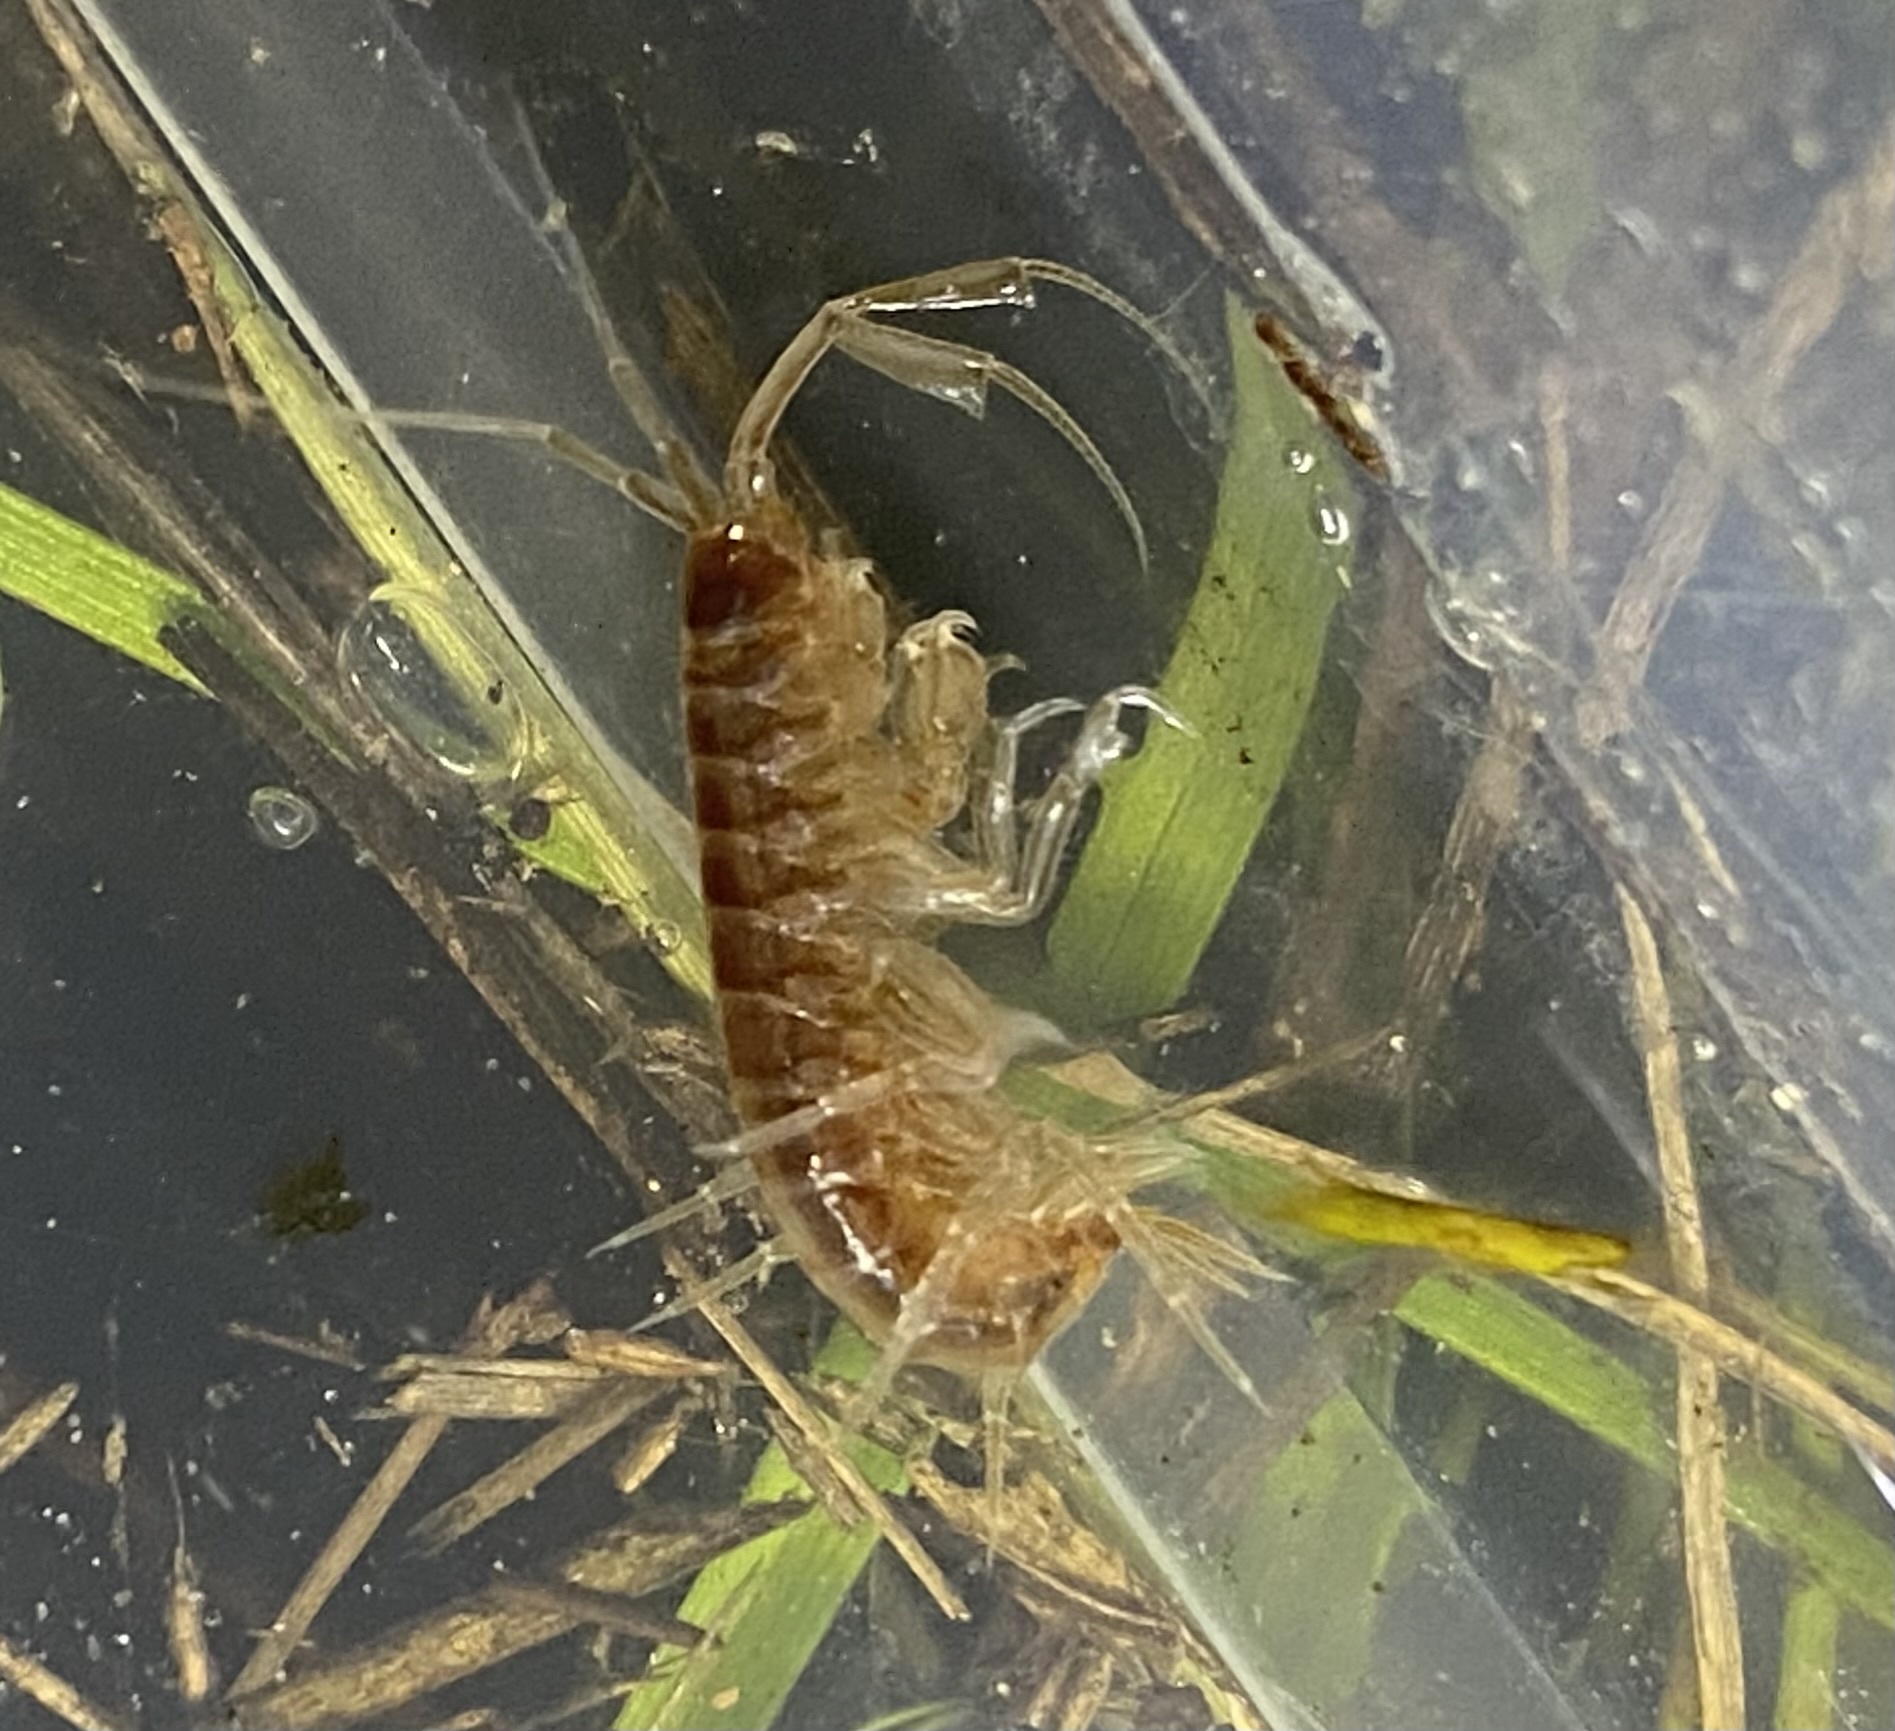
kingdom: Animalia
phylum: Arthropoda
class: Malacostraca
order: Amphipoda
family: Paramelitidae
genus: Paramelita
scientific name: Paramelita pinnicornis
